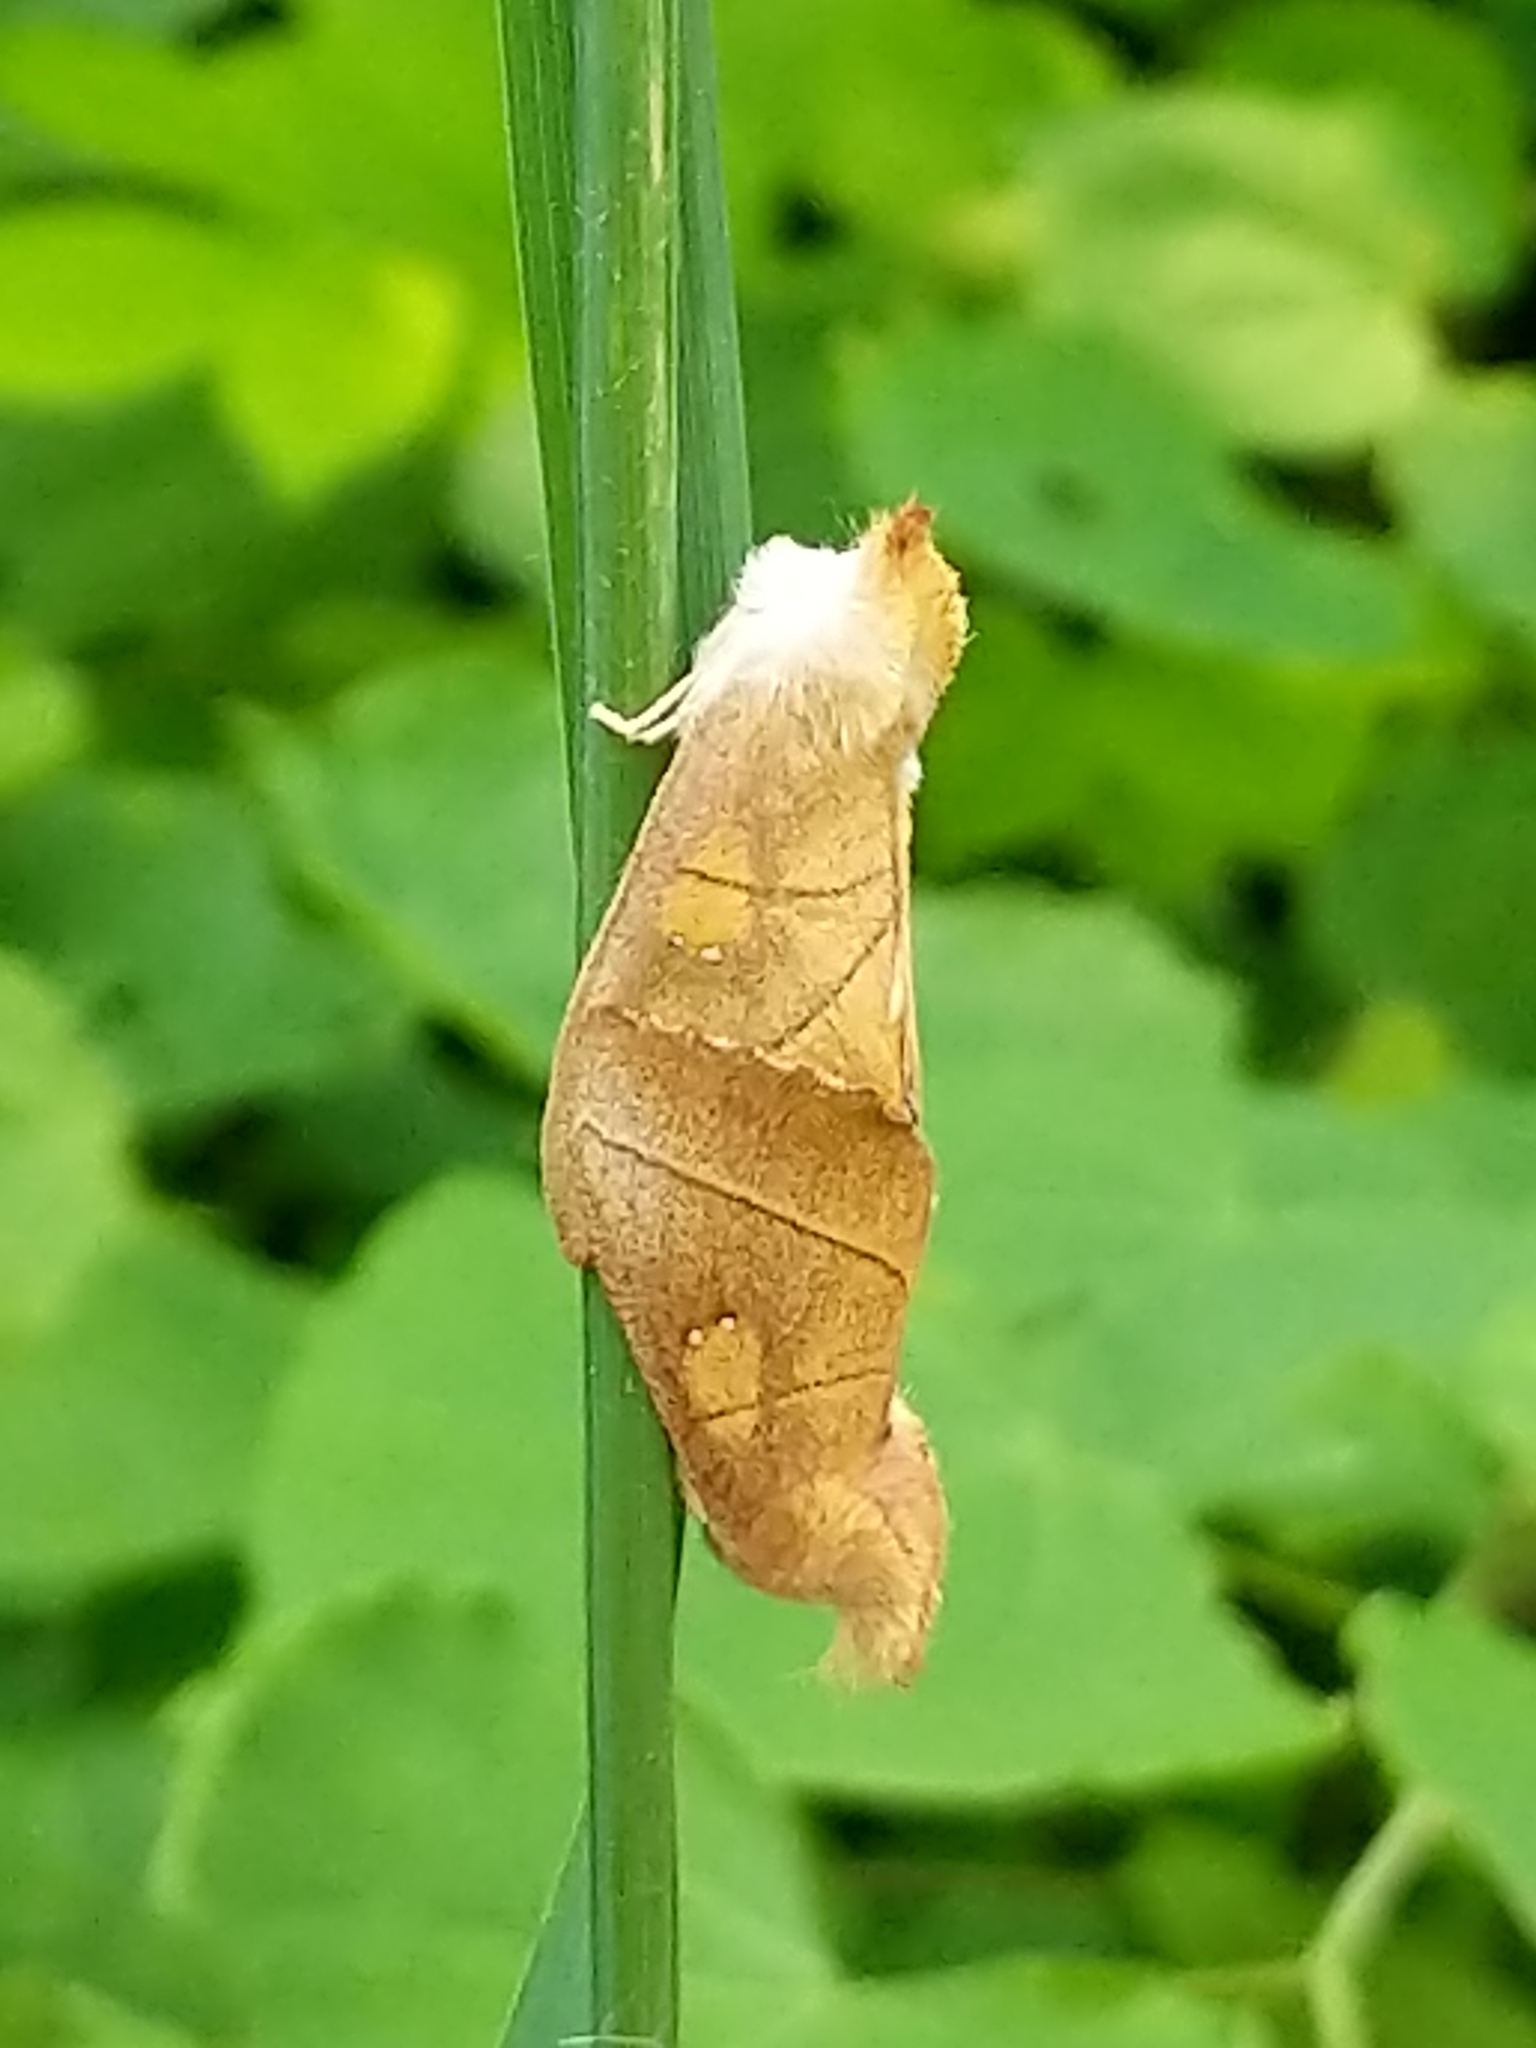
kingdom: Animalia
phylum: Arthropoda
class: Insecta
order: Lepidoptera
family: Notodontidae
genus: Nadata
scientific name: Nadata gibbosa
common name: White-dotted prominent
